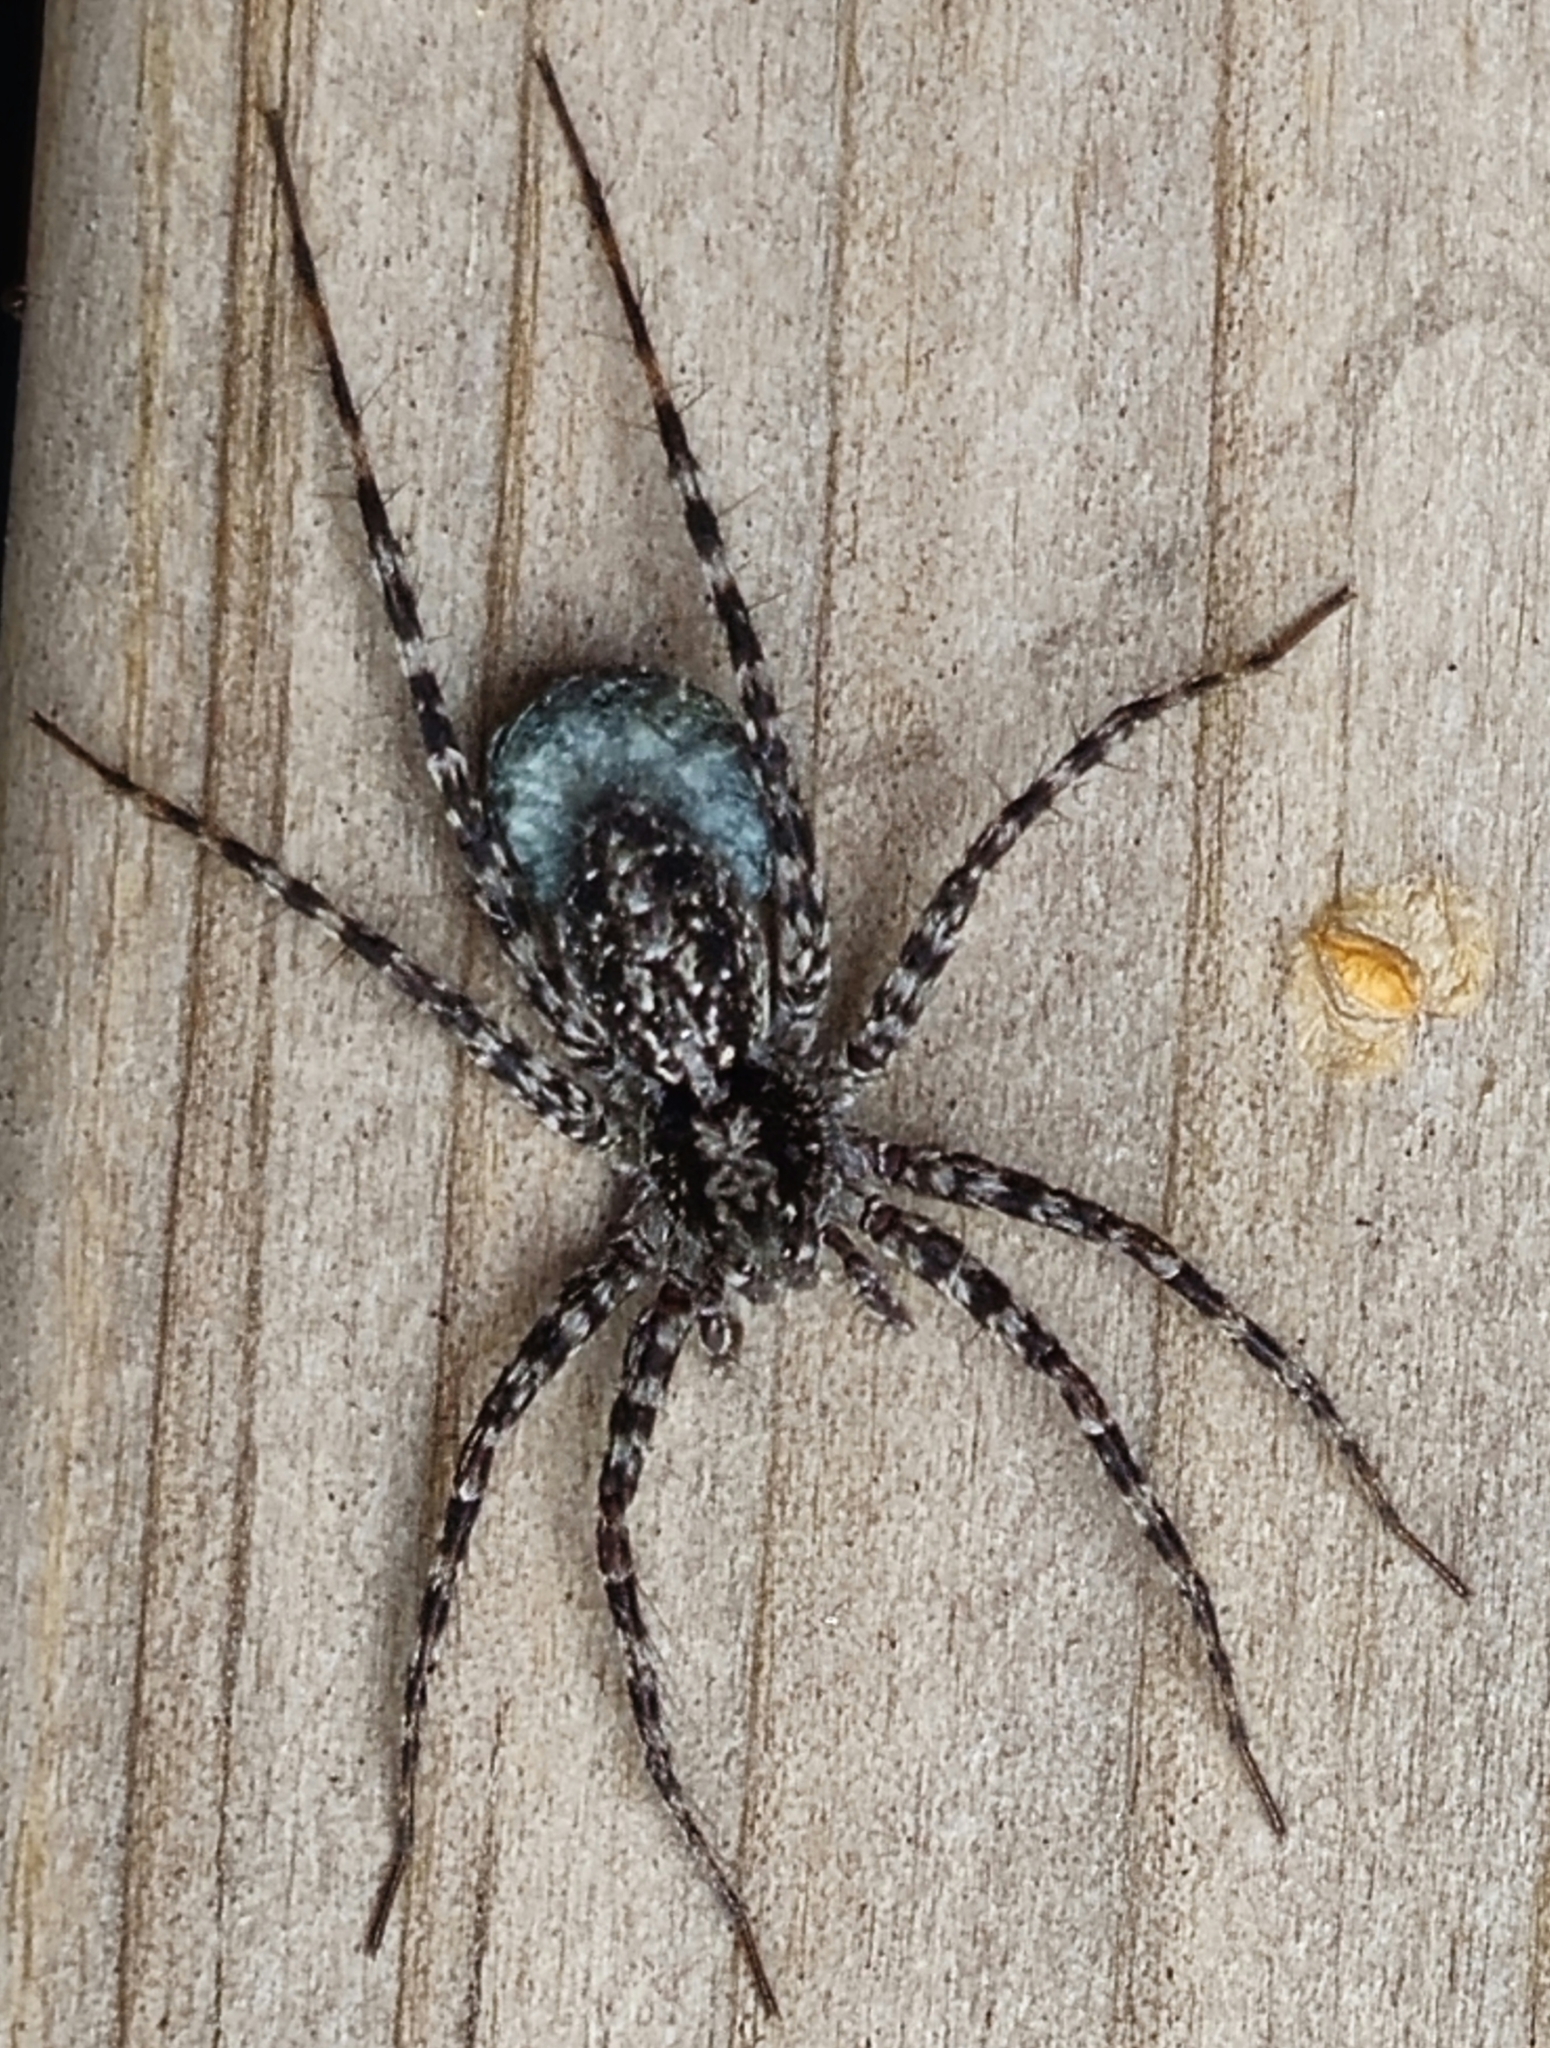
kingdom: Animalia
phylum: Arthropoda
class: Arachnida
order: Araneae
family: Lycosidae
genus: Acantholycosa
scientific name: Acantholycosa lignaria
